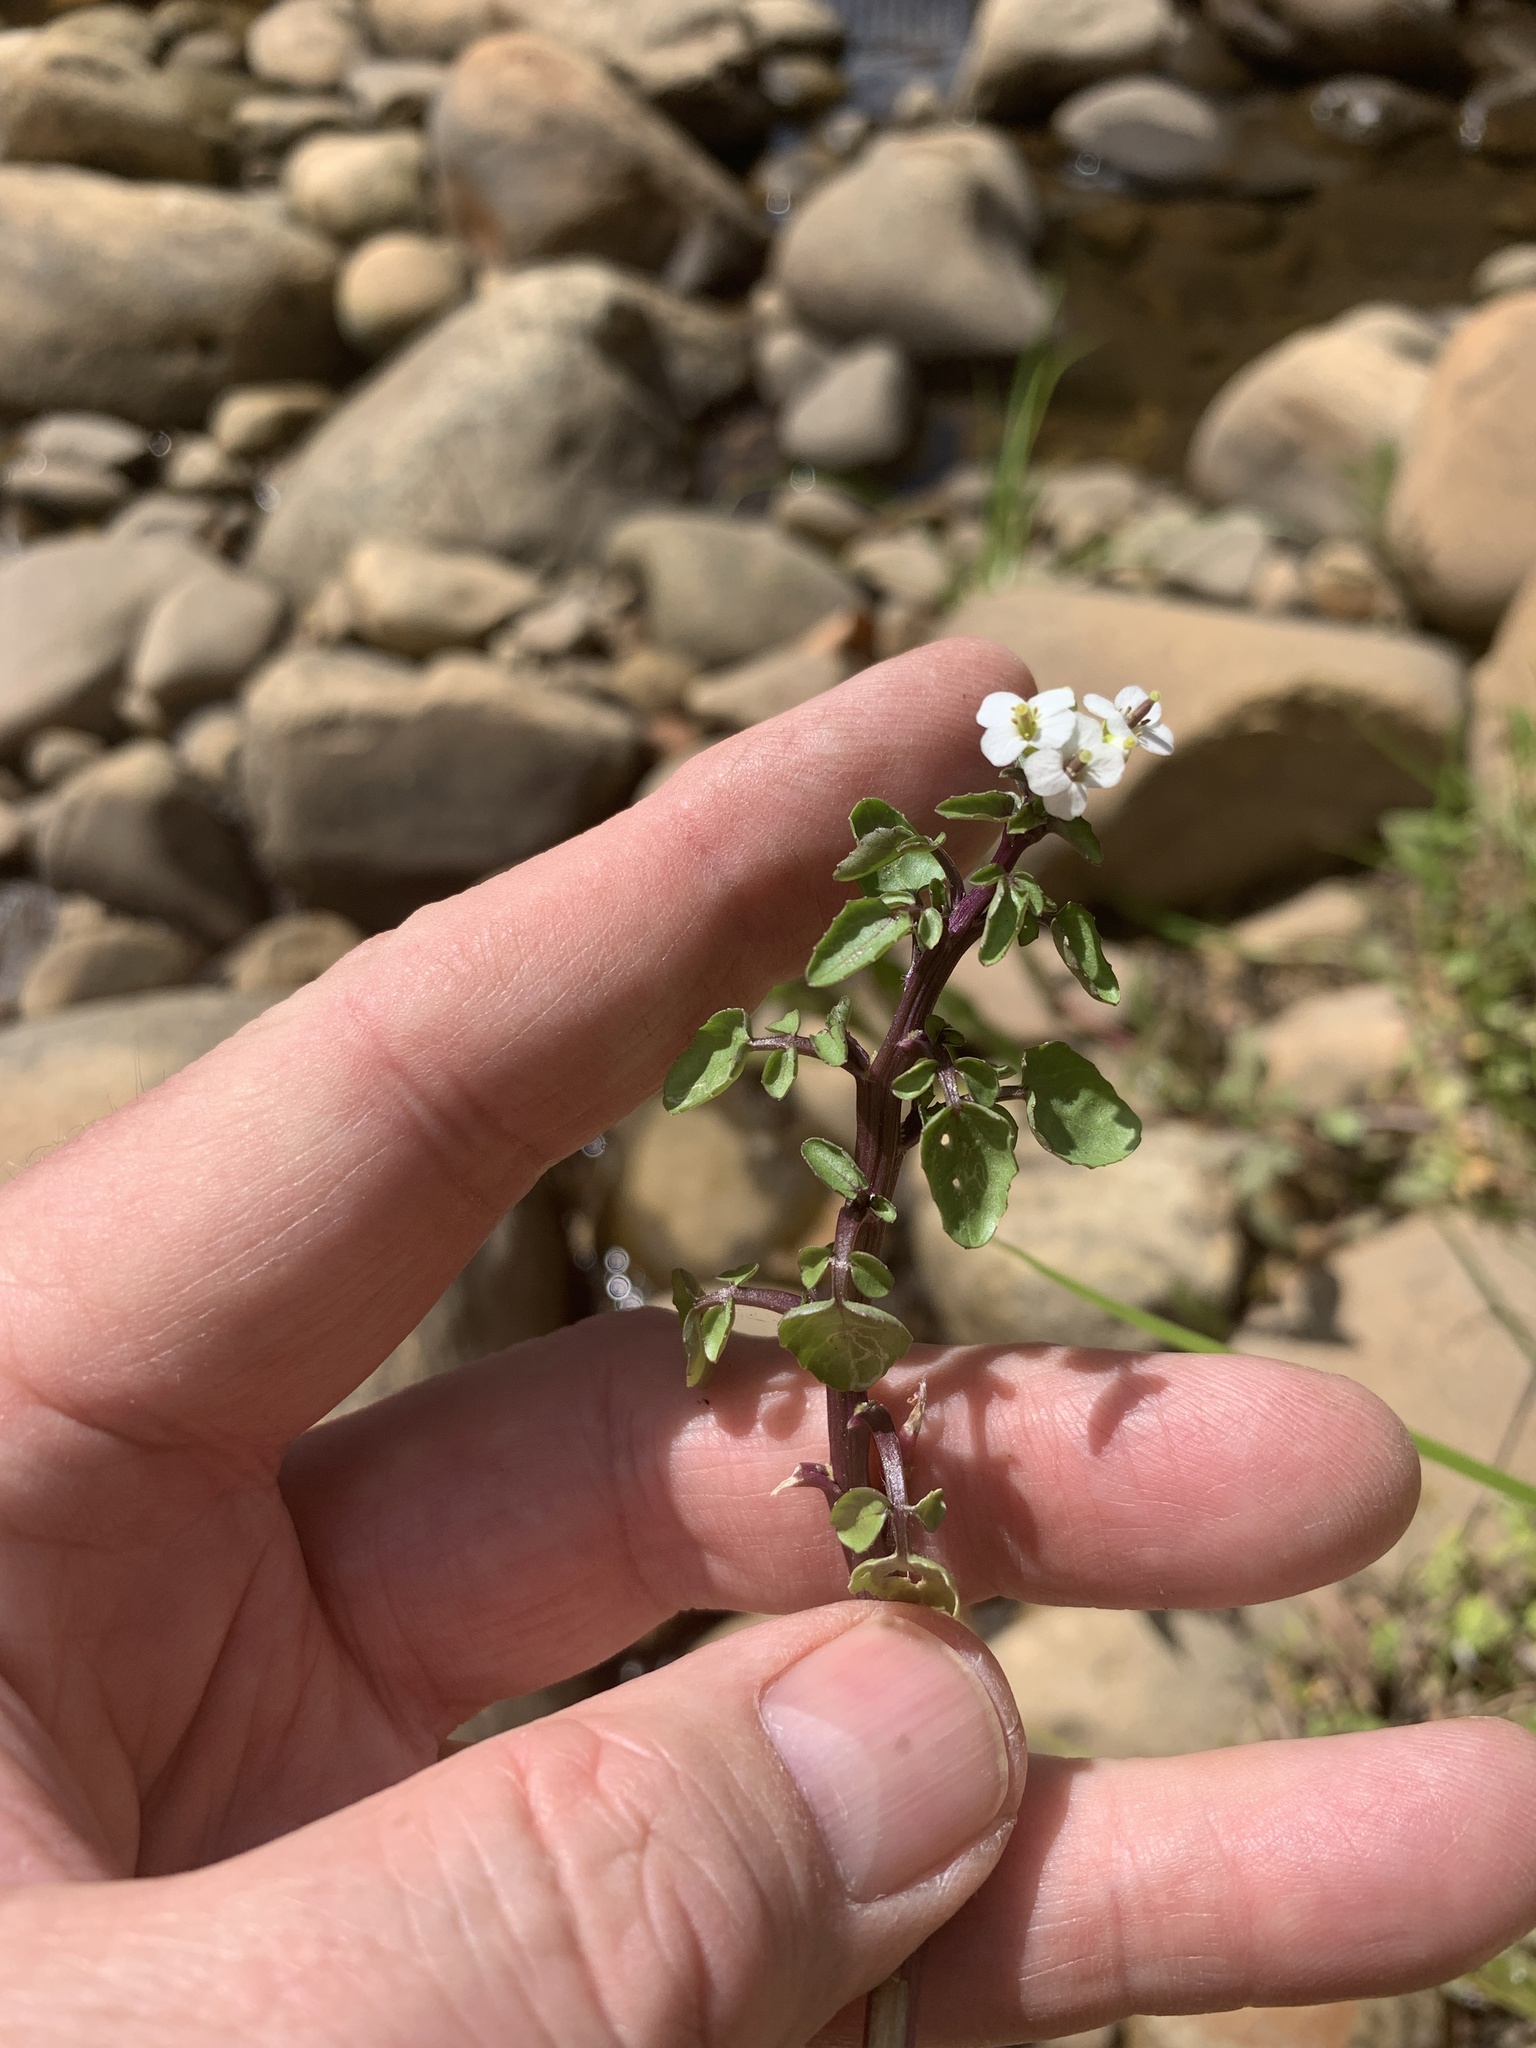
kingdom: Plantae
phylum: Tracheophyta
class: Magnoliopsida
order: Brassicales
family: Brassicaceae
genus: Nasturtium
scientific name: Nasturtium officinale
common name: Watercress
